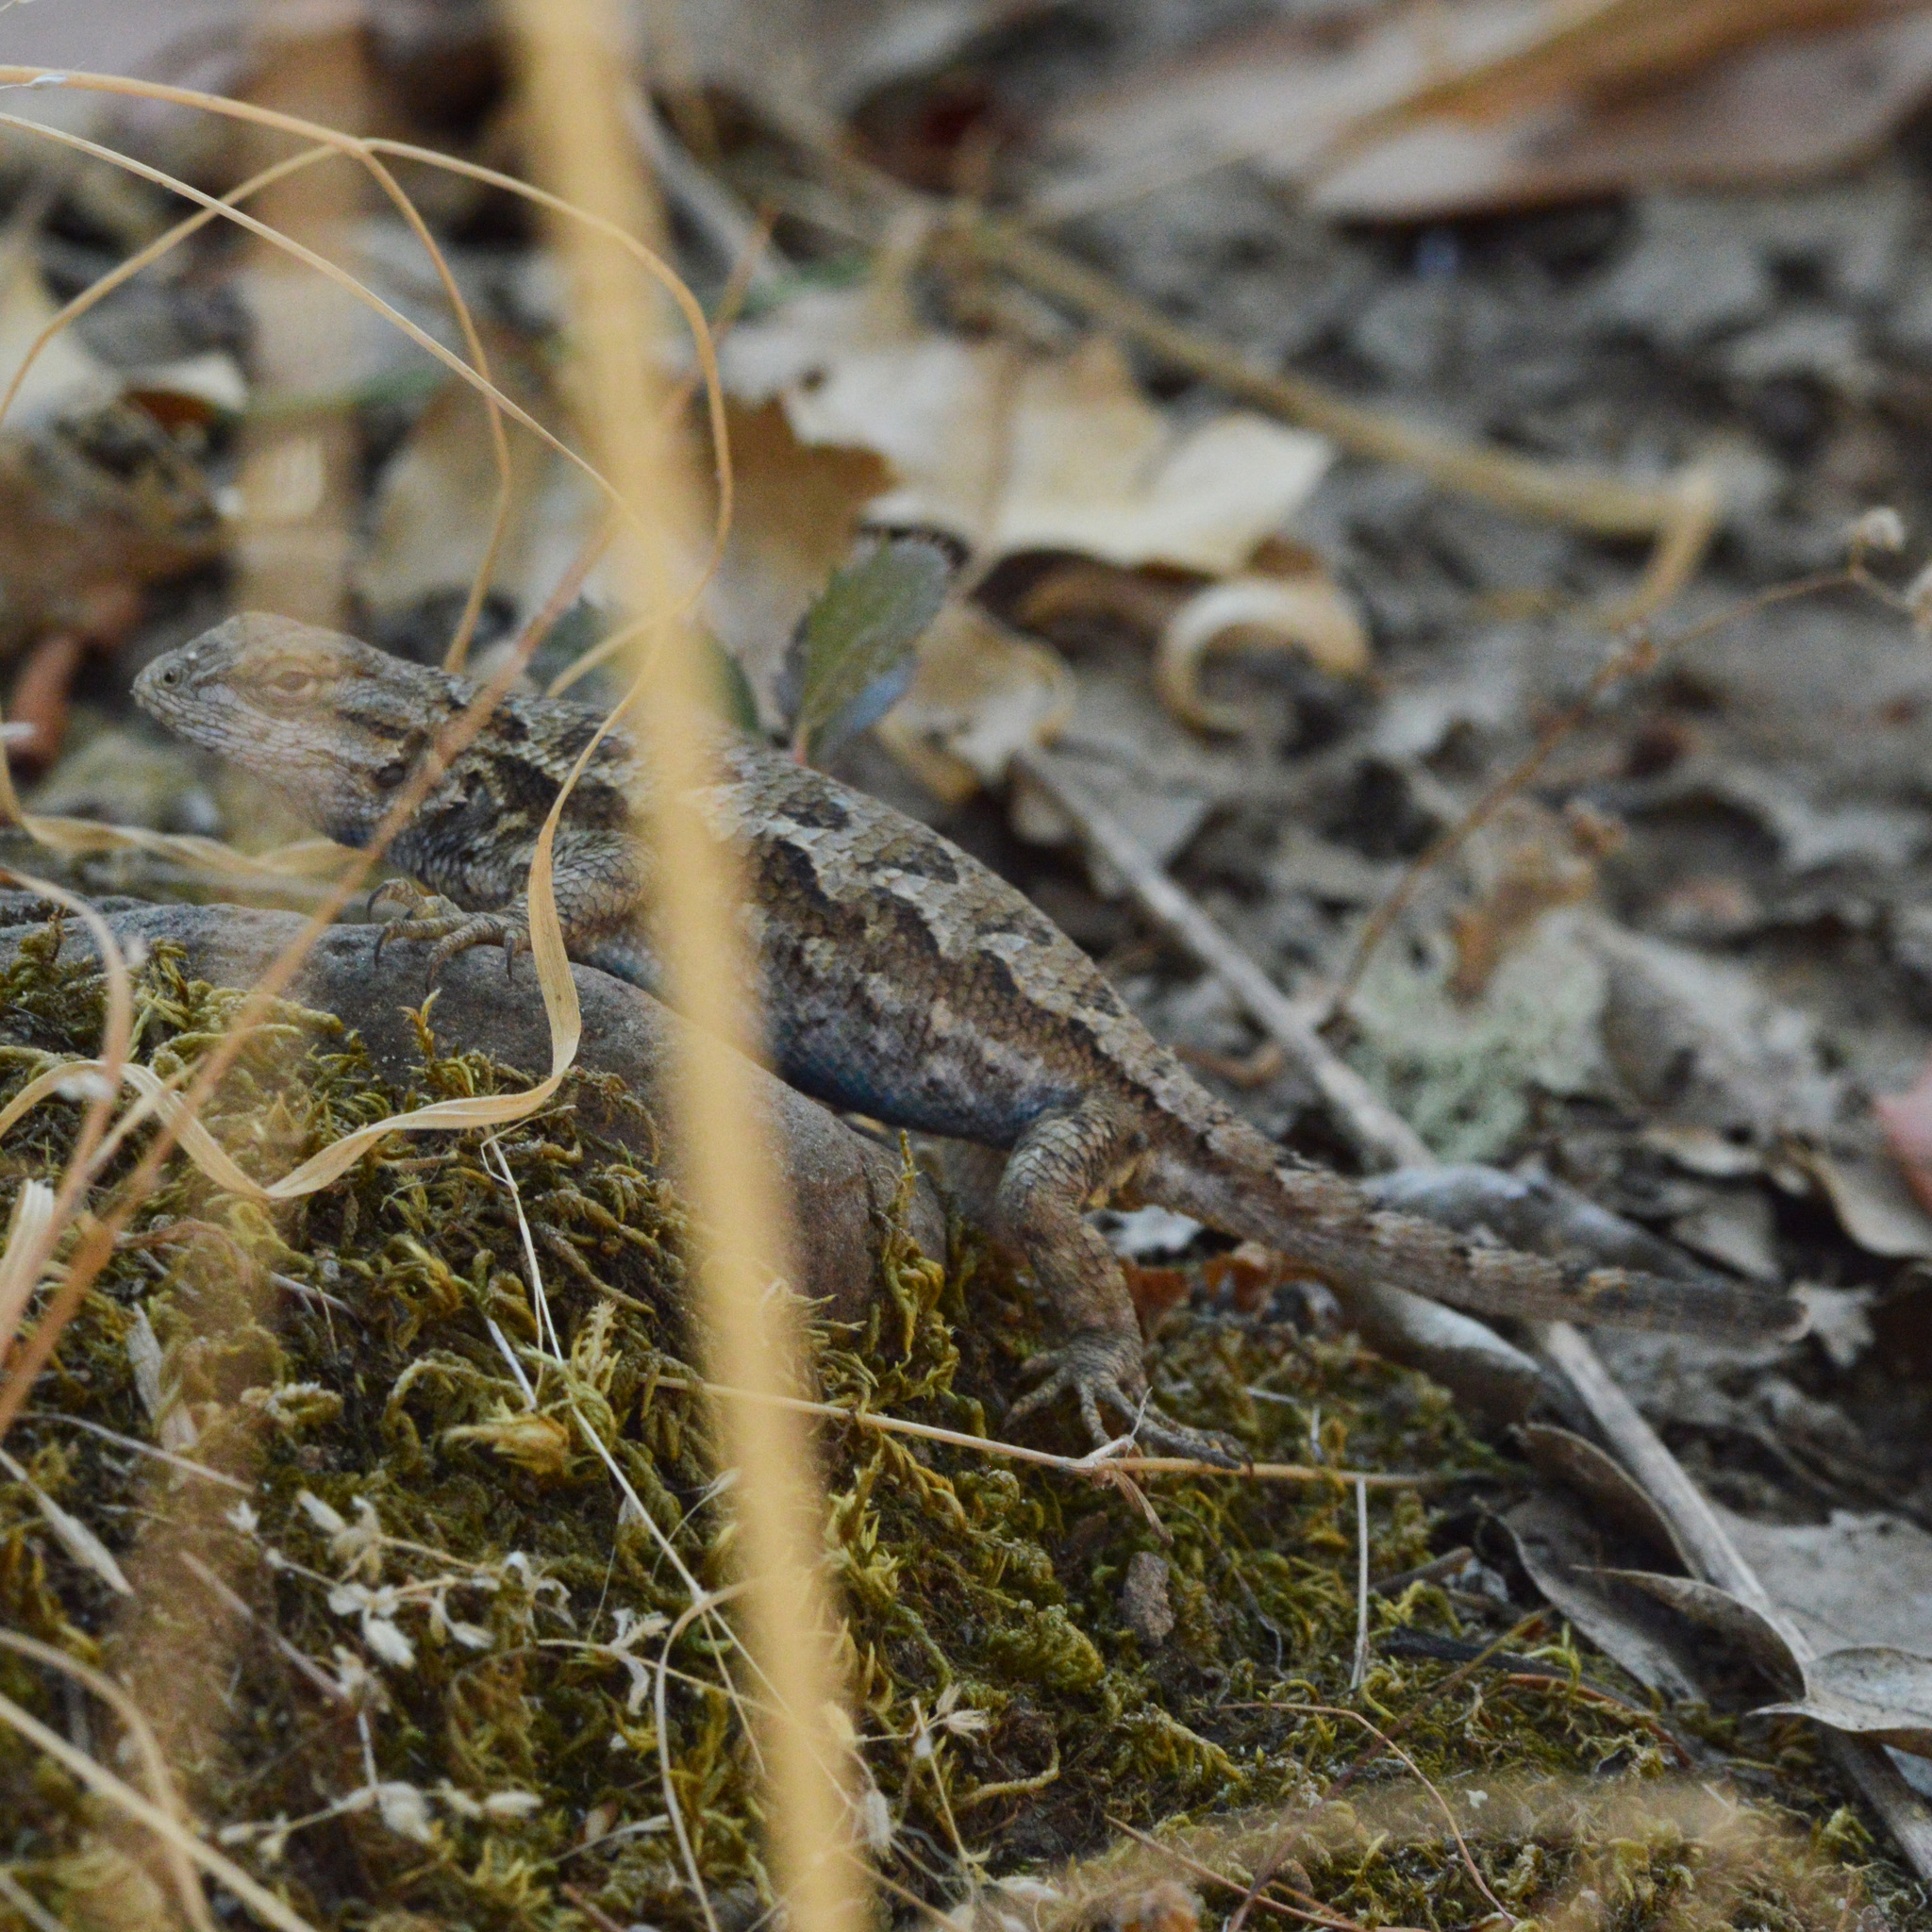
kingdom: Animalia
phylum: Chordata
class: Squamata
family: Phrynosomatidae
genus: Sceloporus
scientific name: Sceloporus occidentalis
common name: Western fence lizard
